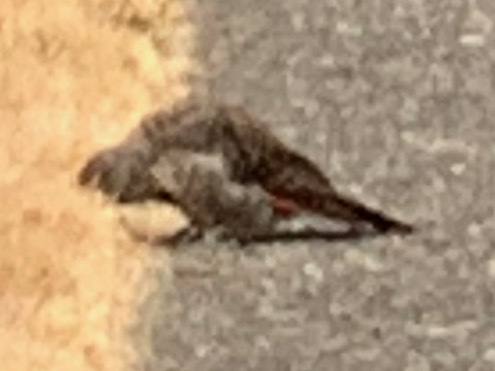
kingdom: Animalia
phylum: Chordata
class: Aves
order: Piciformes
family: Picidae
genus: Colaptes
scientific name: Colaptes auratus
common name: Northern flicker
